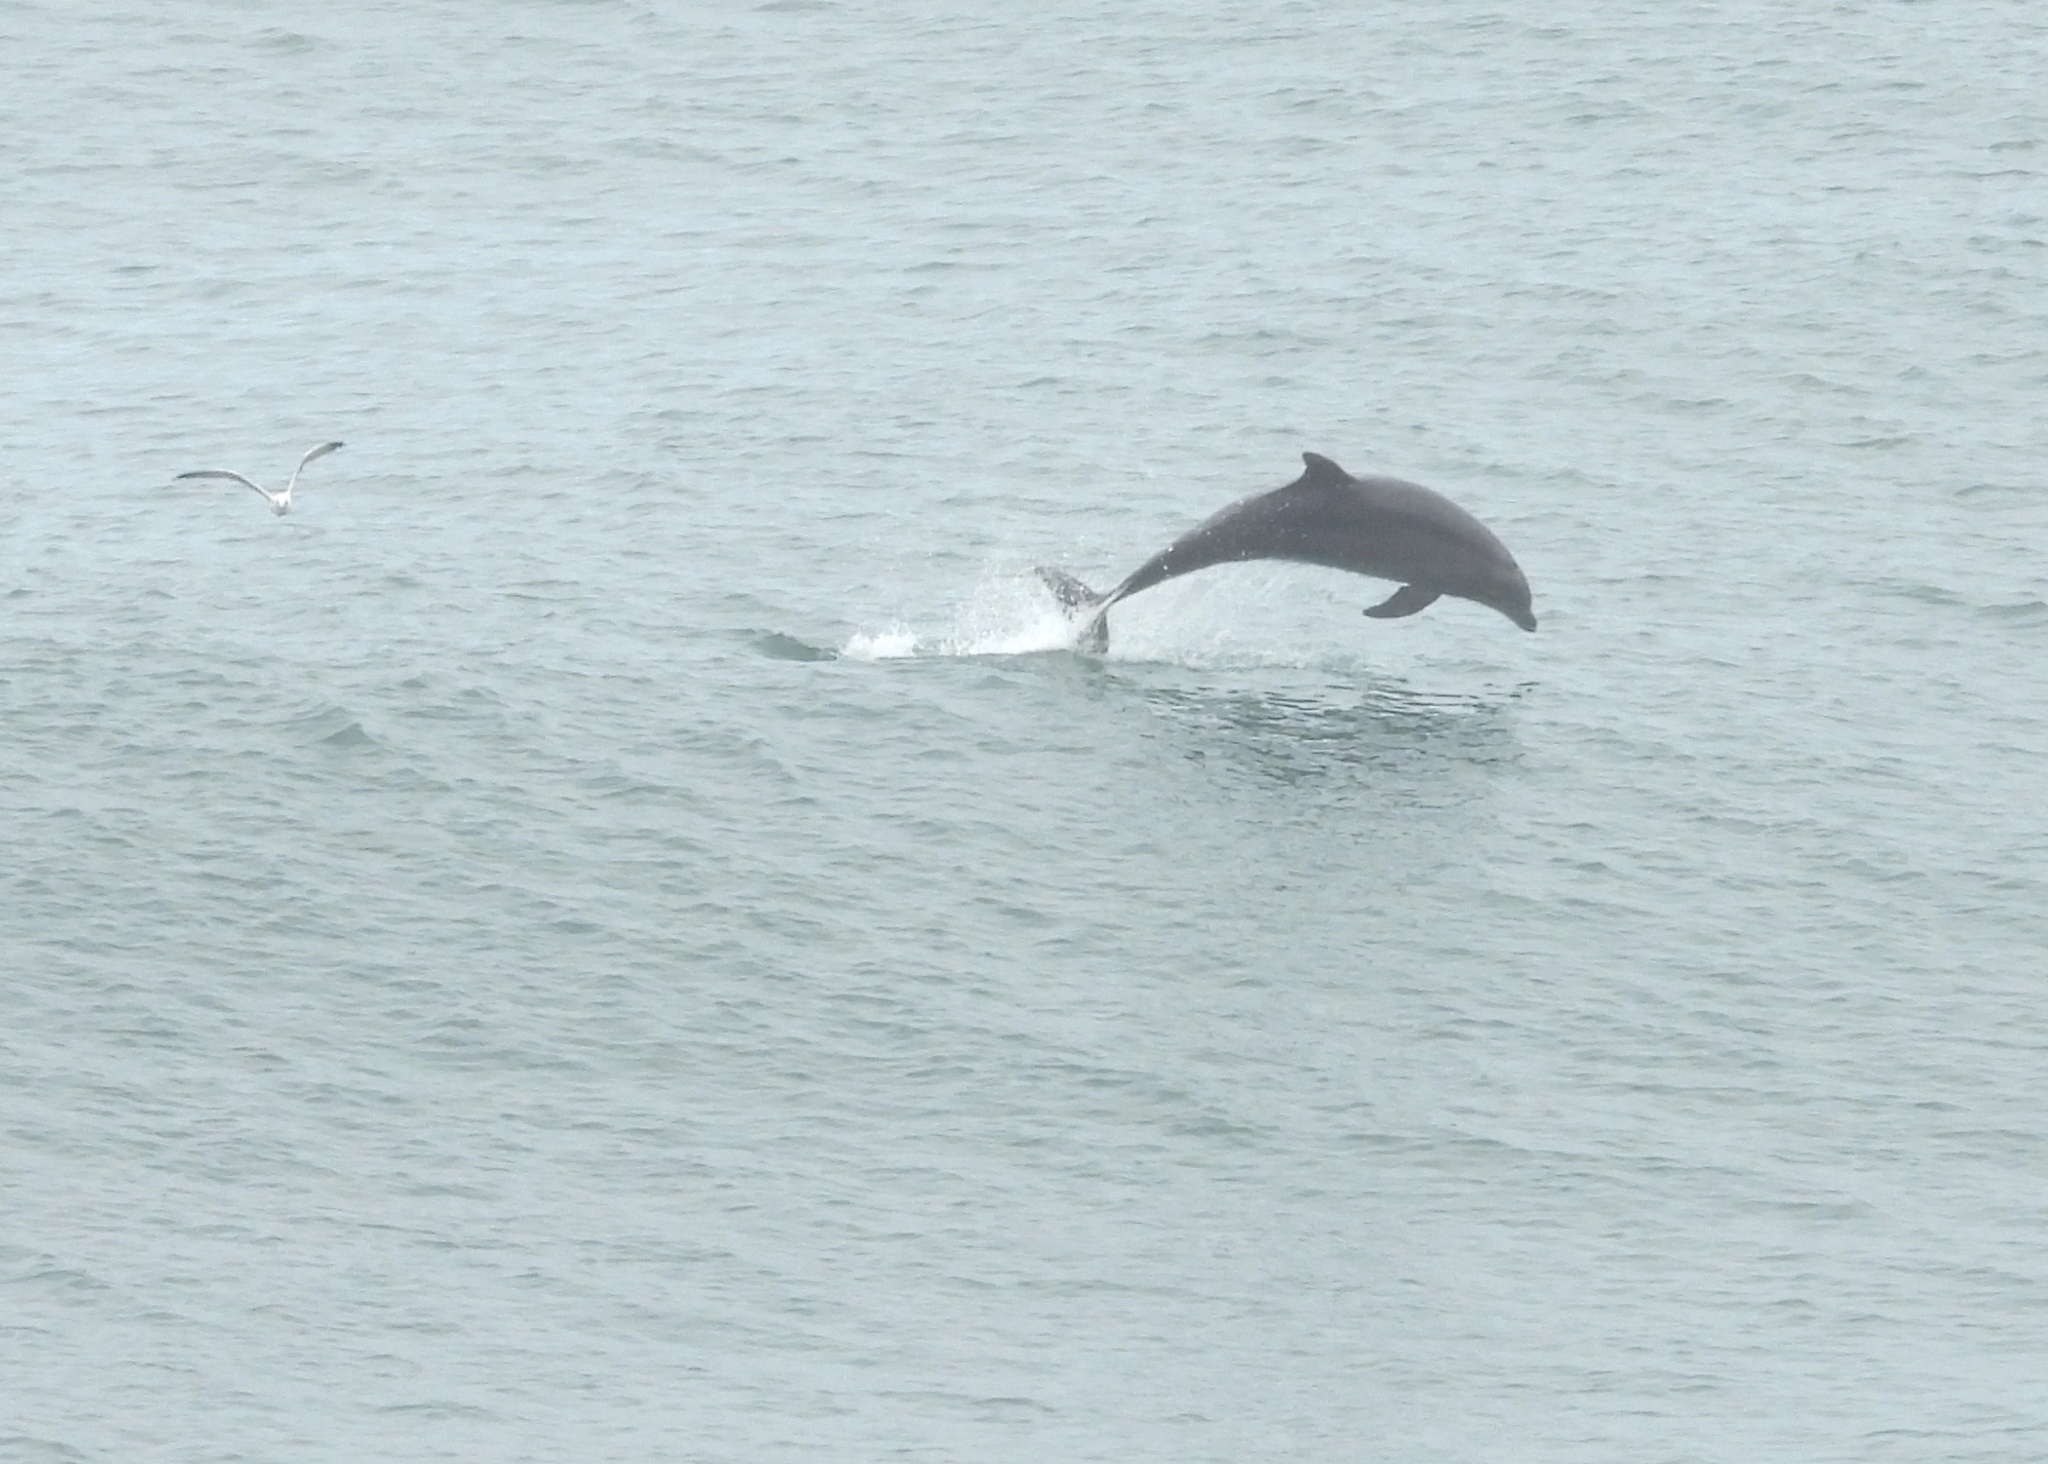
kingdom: Animalia
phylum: Chordata
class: Mammalia
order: Cetacea
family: Delphinidae
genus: Tursiops
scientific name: Tursiops truncatus
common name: Bottlenose dolphin
